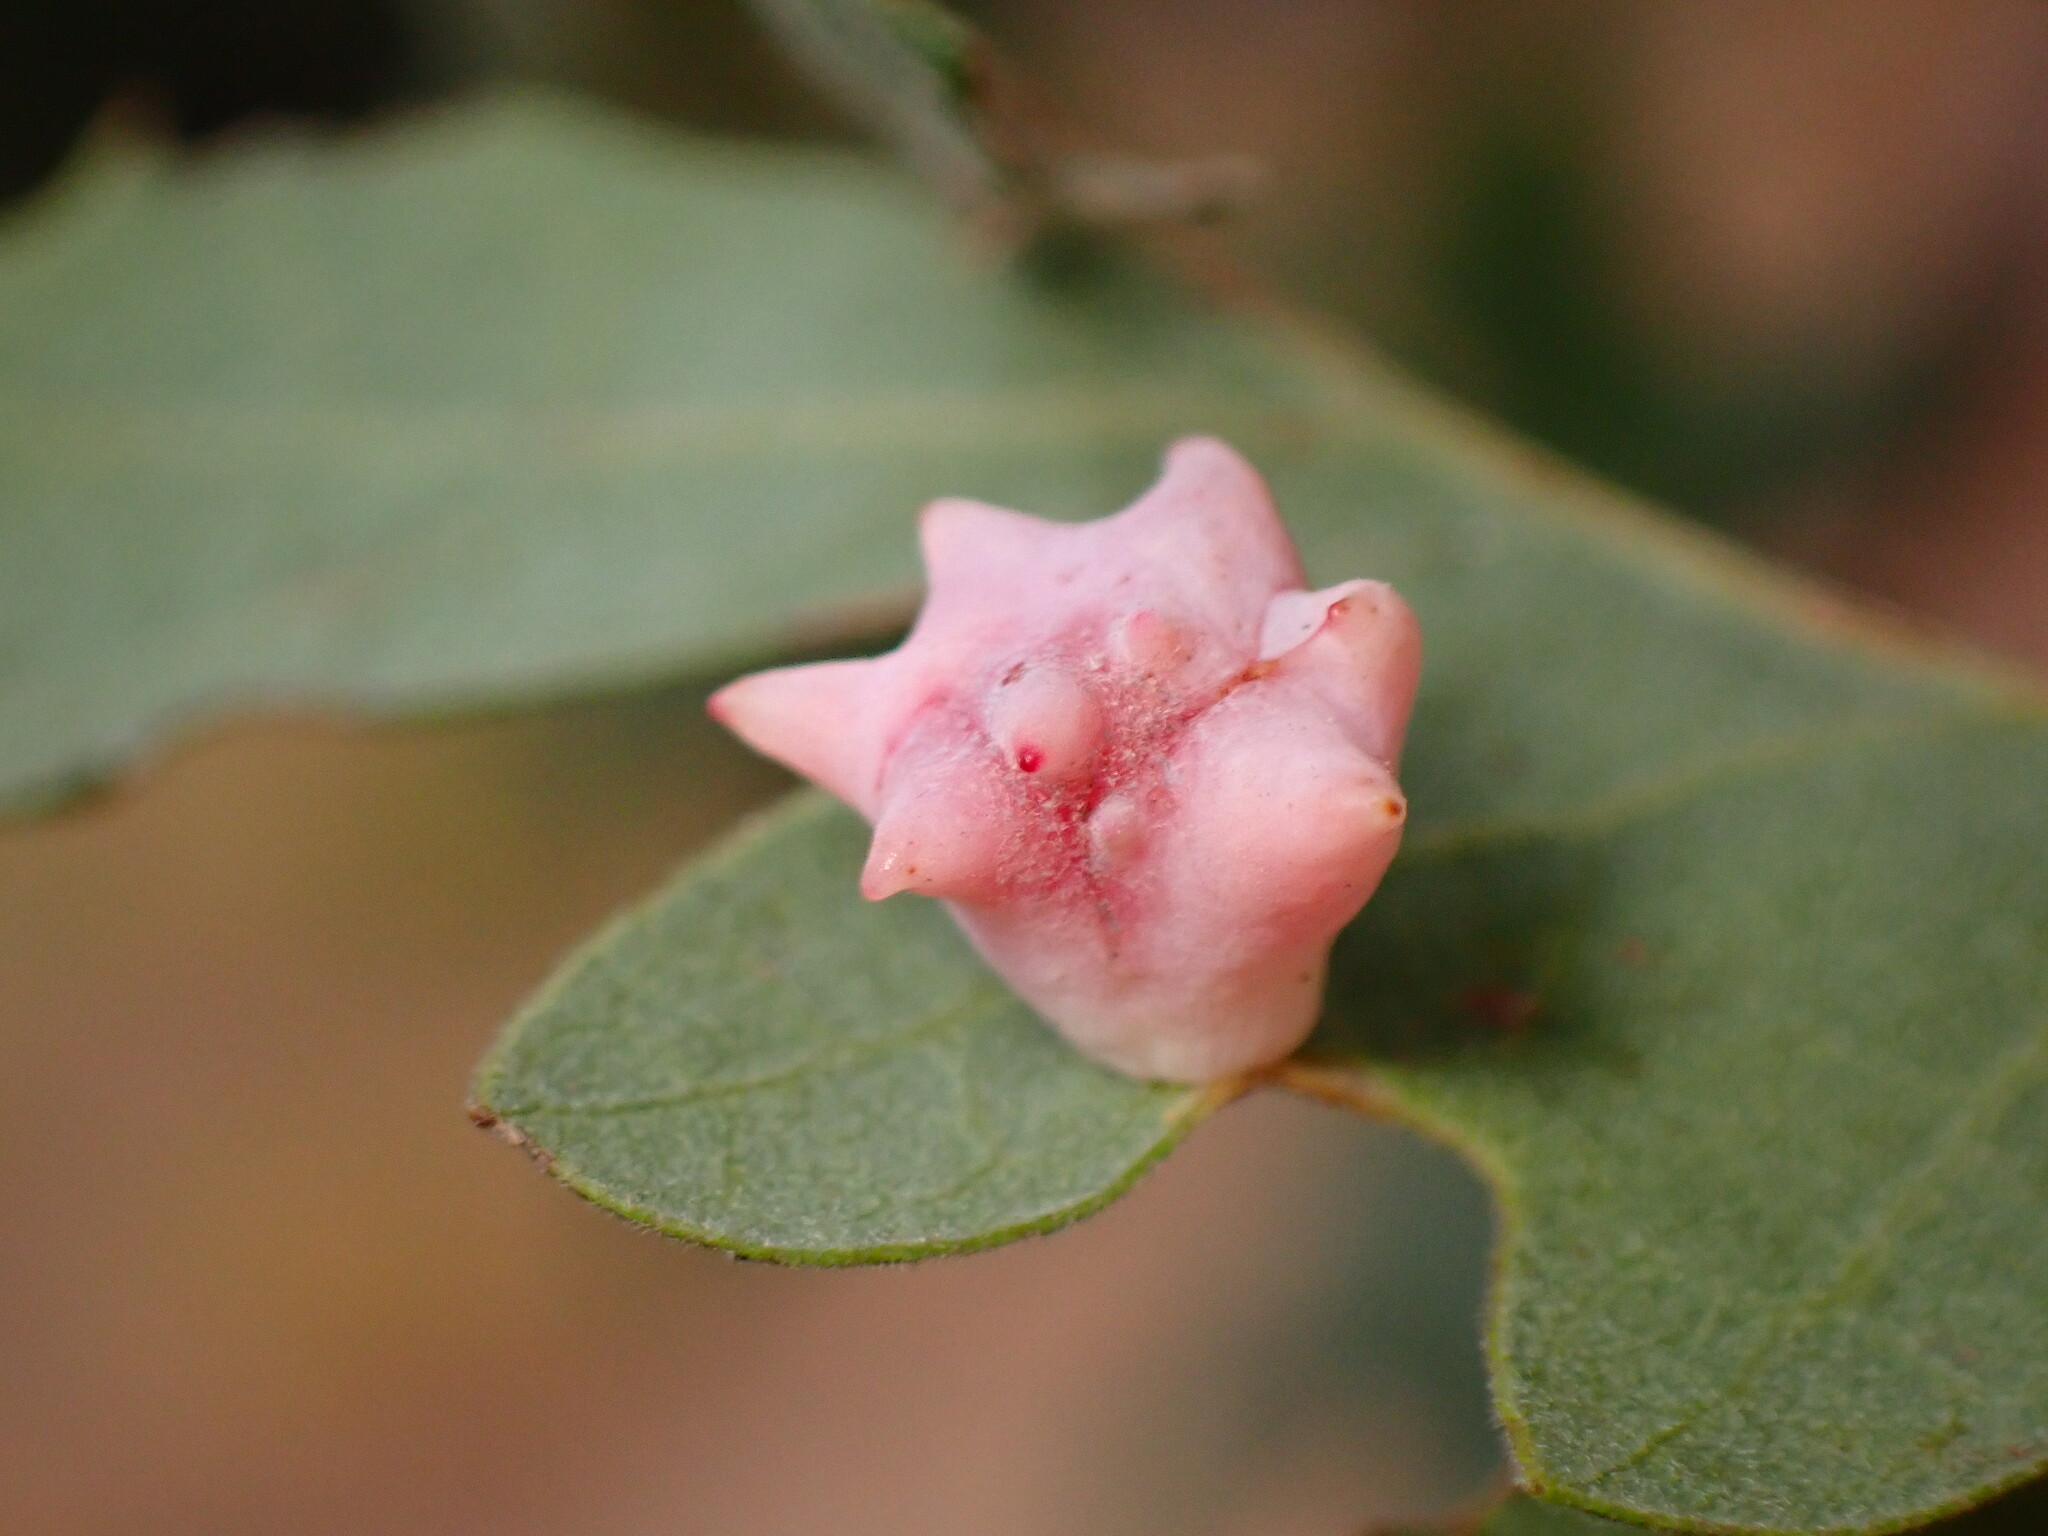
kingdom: Animalia
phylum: Arthropoda
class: Insecta
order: Hymenoptera
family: Cynipidae
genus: Cynips
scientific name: Cynips douglasi
